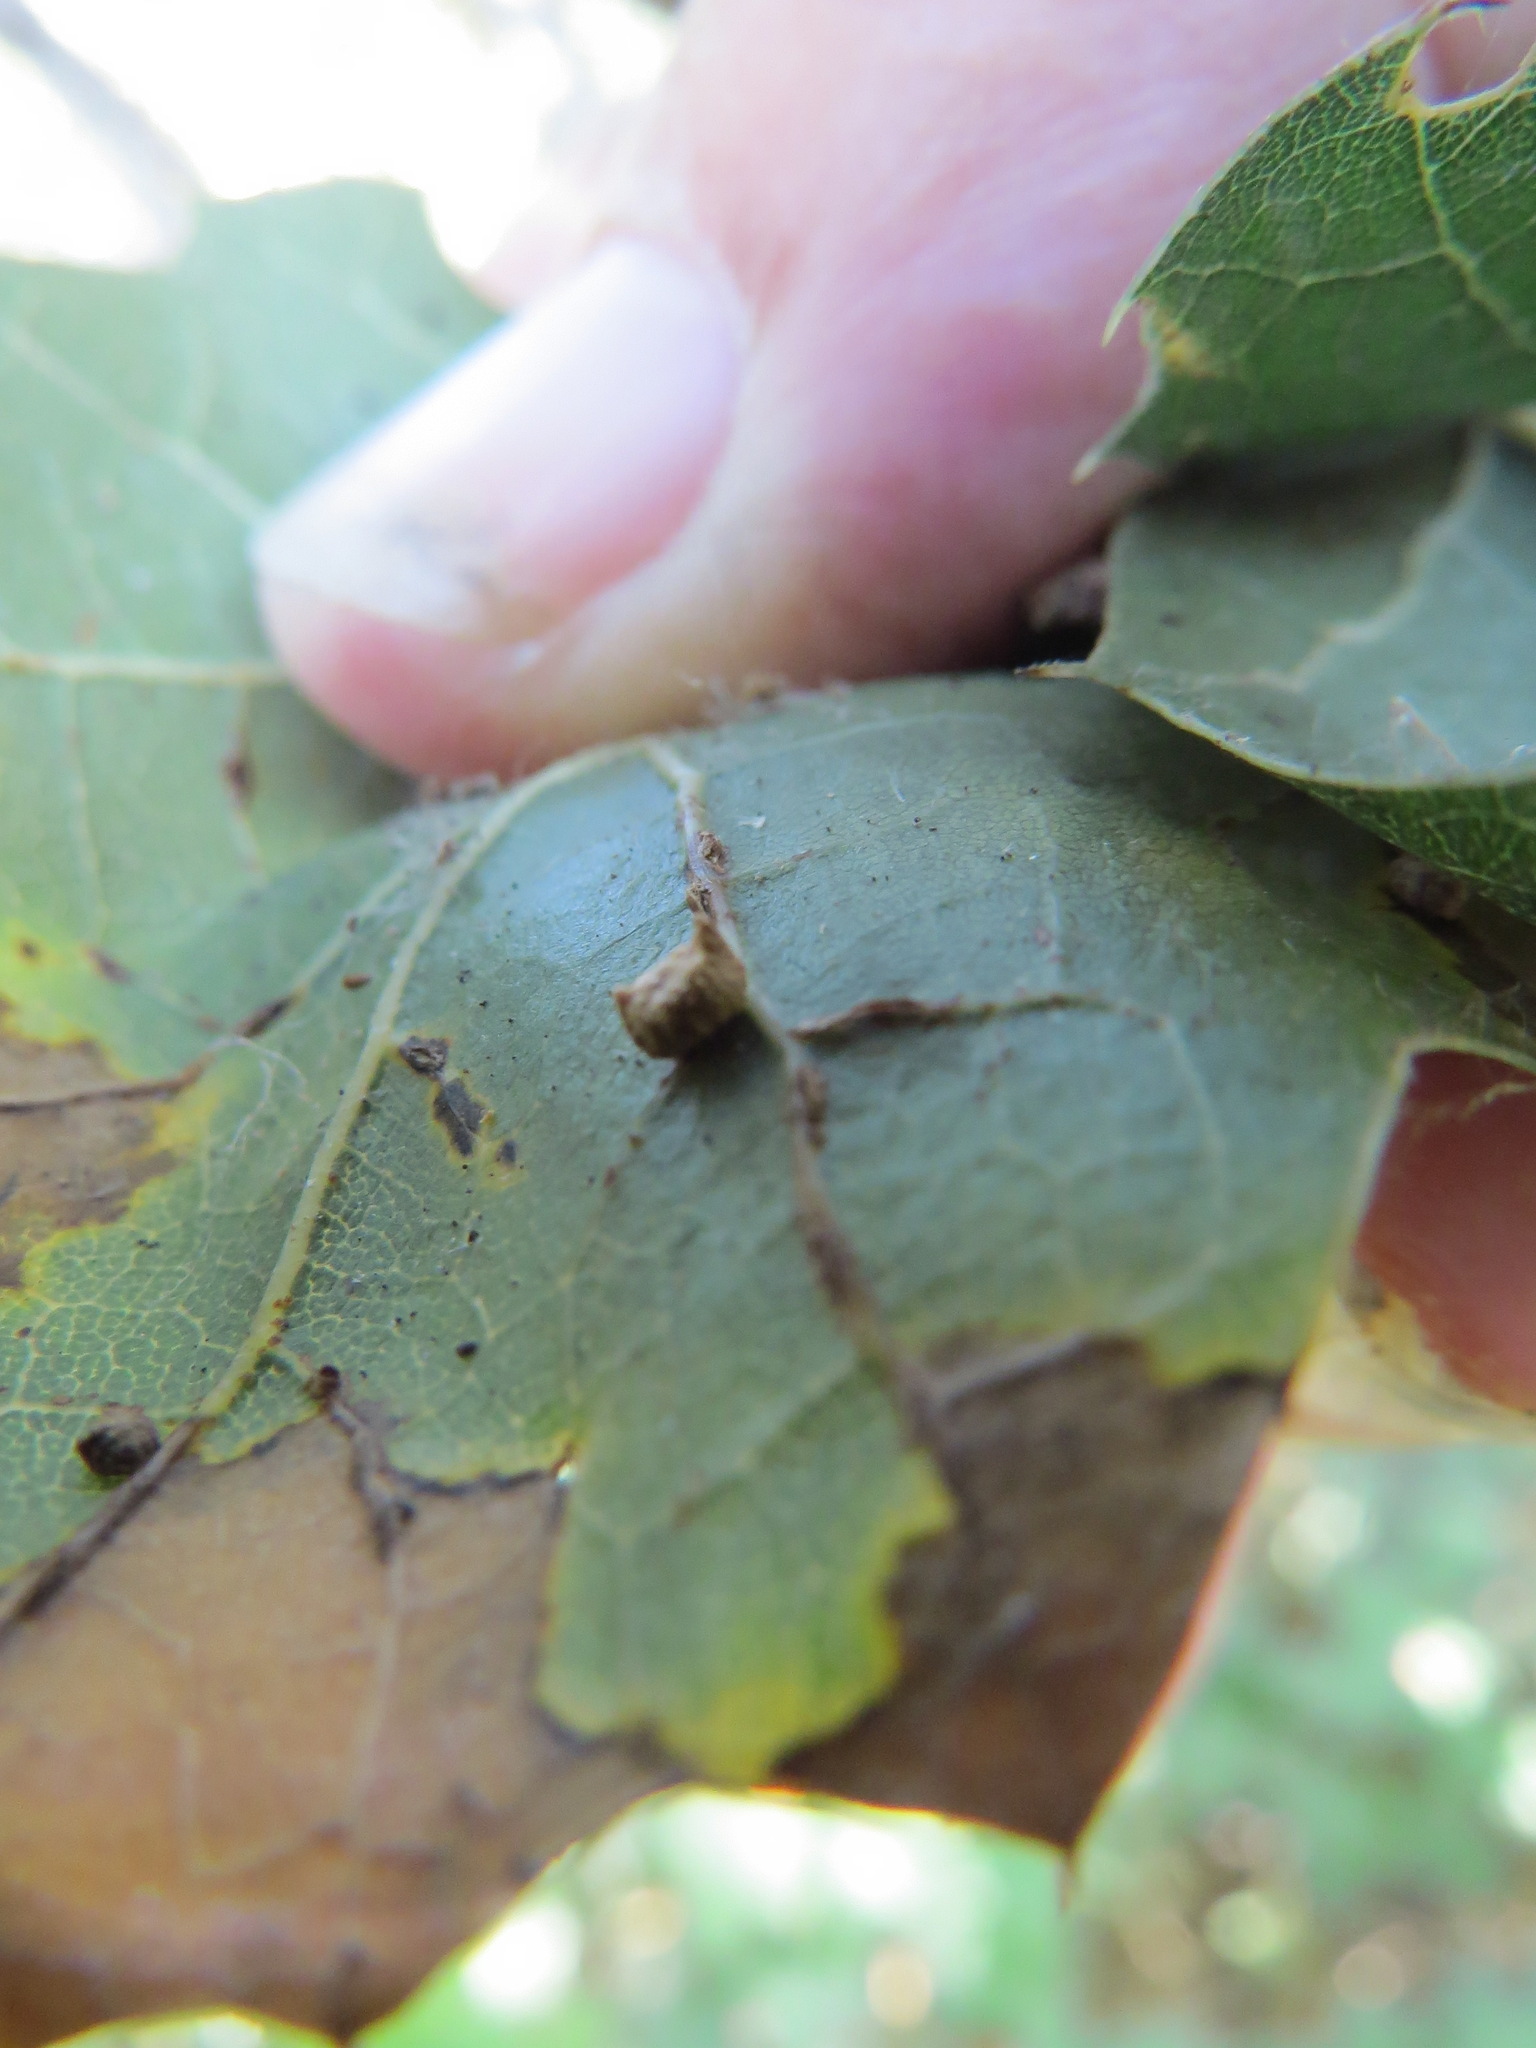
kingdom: Animalia
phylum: Arthropoda
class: Insecta
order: Hymenoptera
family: Cynipidae
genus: Dryocosmus
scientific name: Dryocosmus
